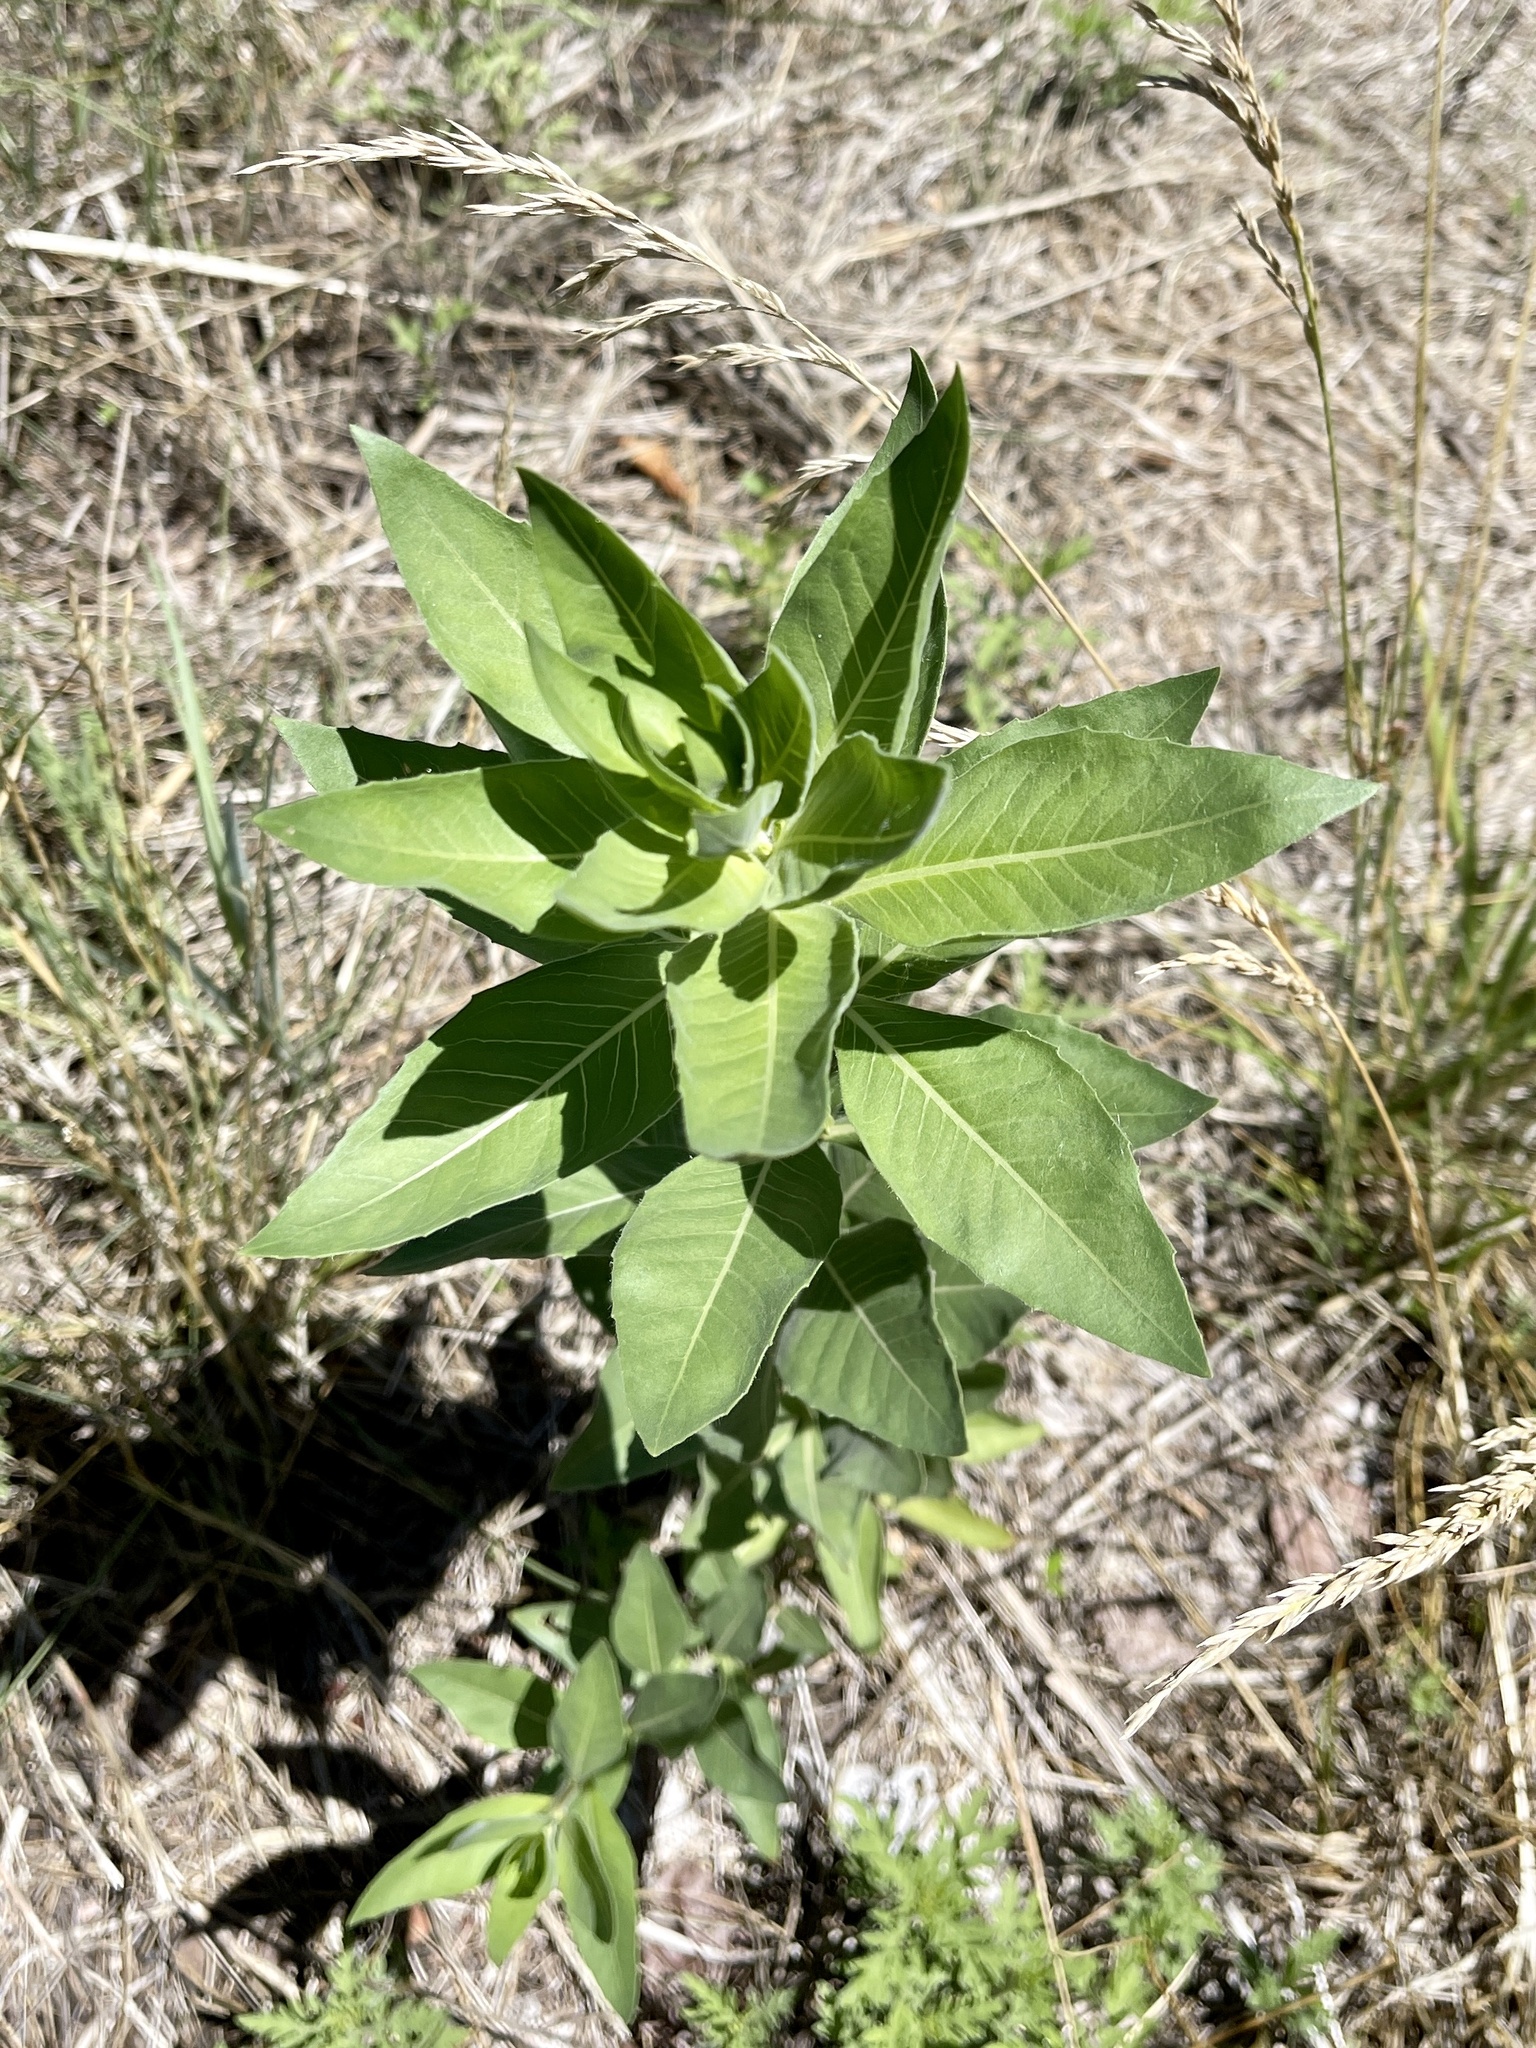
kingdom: Plantae
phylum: Tracheophyta
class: Magnoliopsida
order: Gentianales
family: Apocynaceae
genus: Asclepias
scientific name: Asclepias speciosa
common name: Showy milkweed
